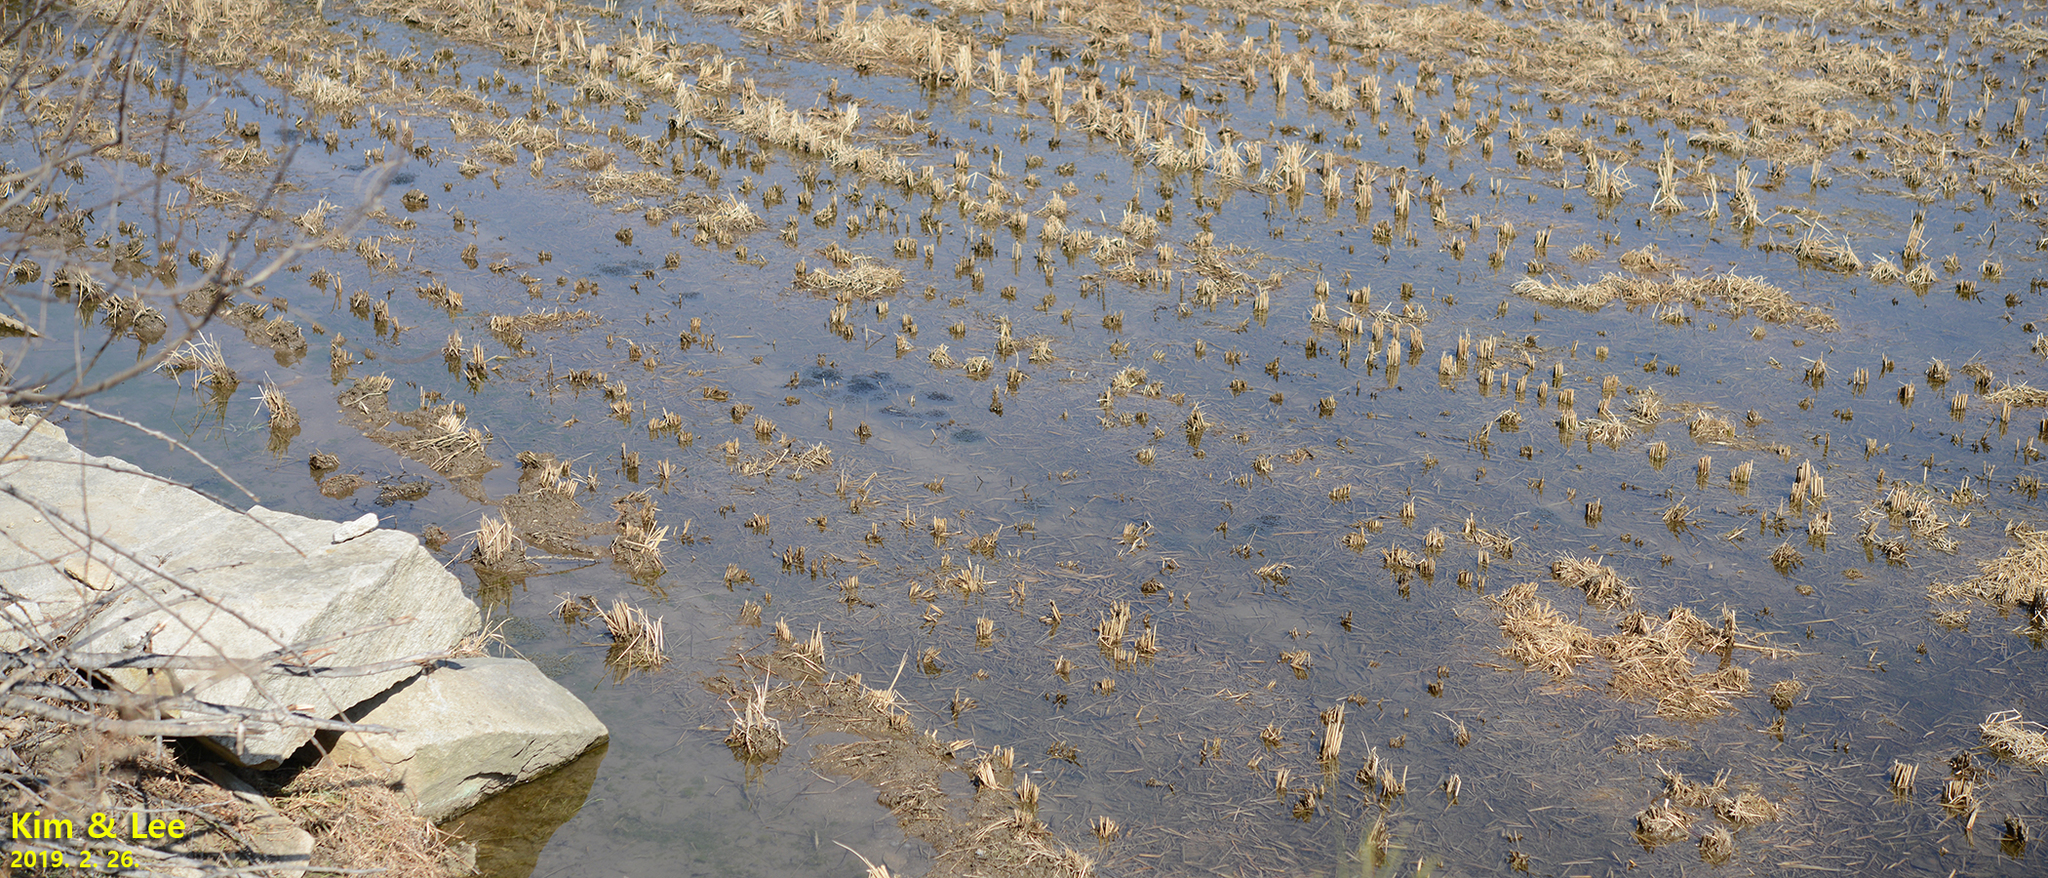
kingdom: Animalia
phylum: Chordata
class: Amphibia
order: Anura
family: Ranidae
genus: Rana
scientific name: Rana uenoi
